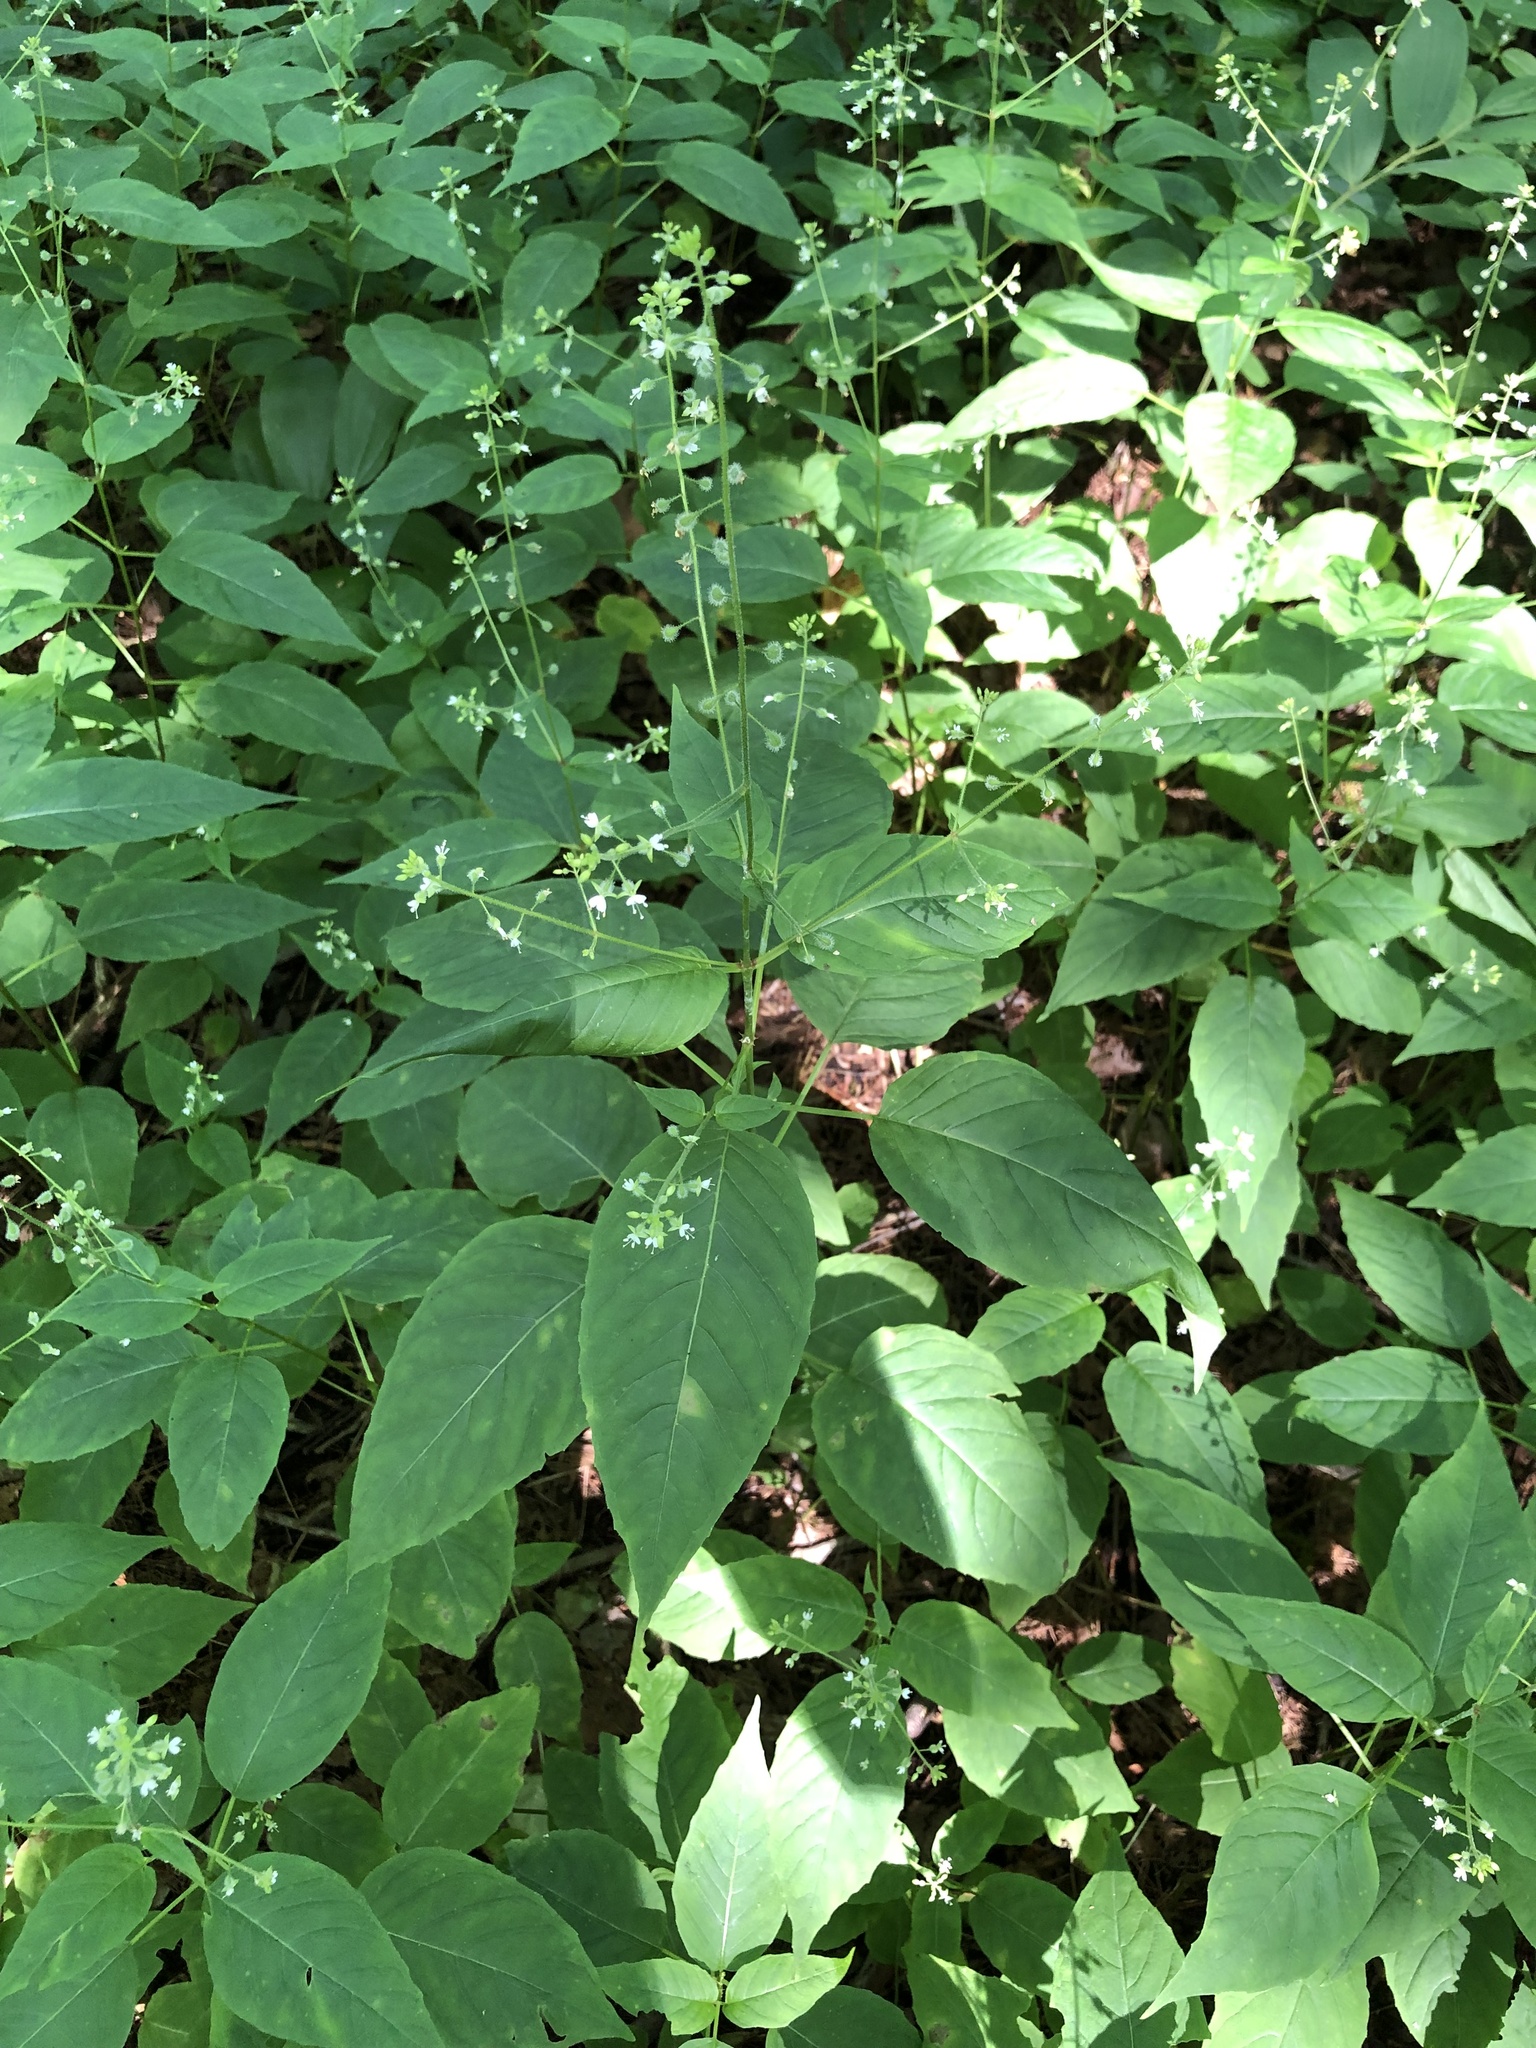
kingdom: Plantae
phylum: Tracheophyta
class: Magnoliopsida
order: Myrtales
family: Onagraceae
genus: Circaea
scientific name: Circaea canadensis
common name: Broad-leaved enchanter's nightshade
